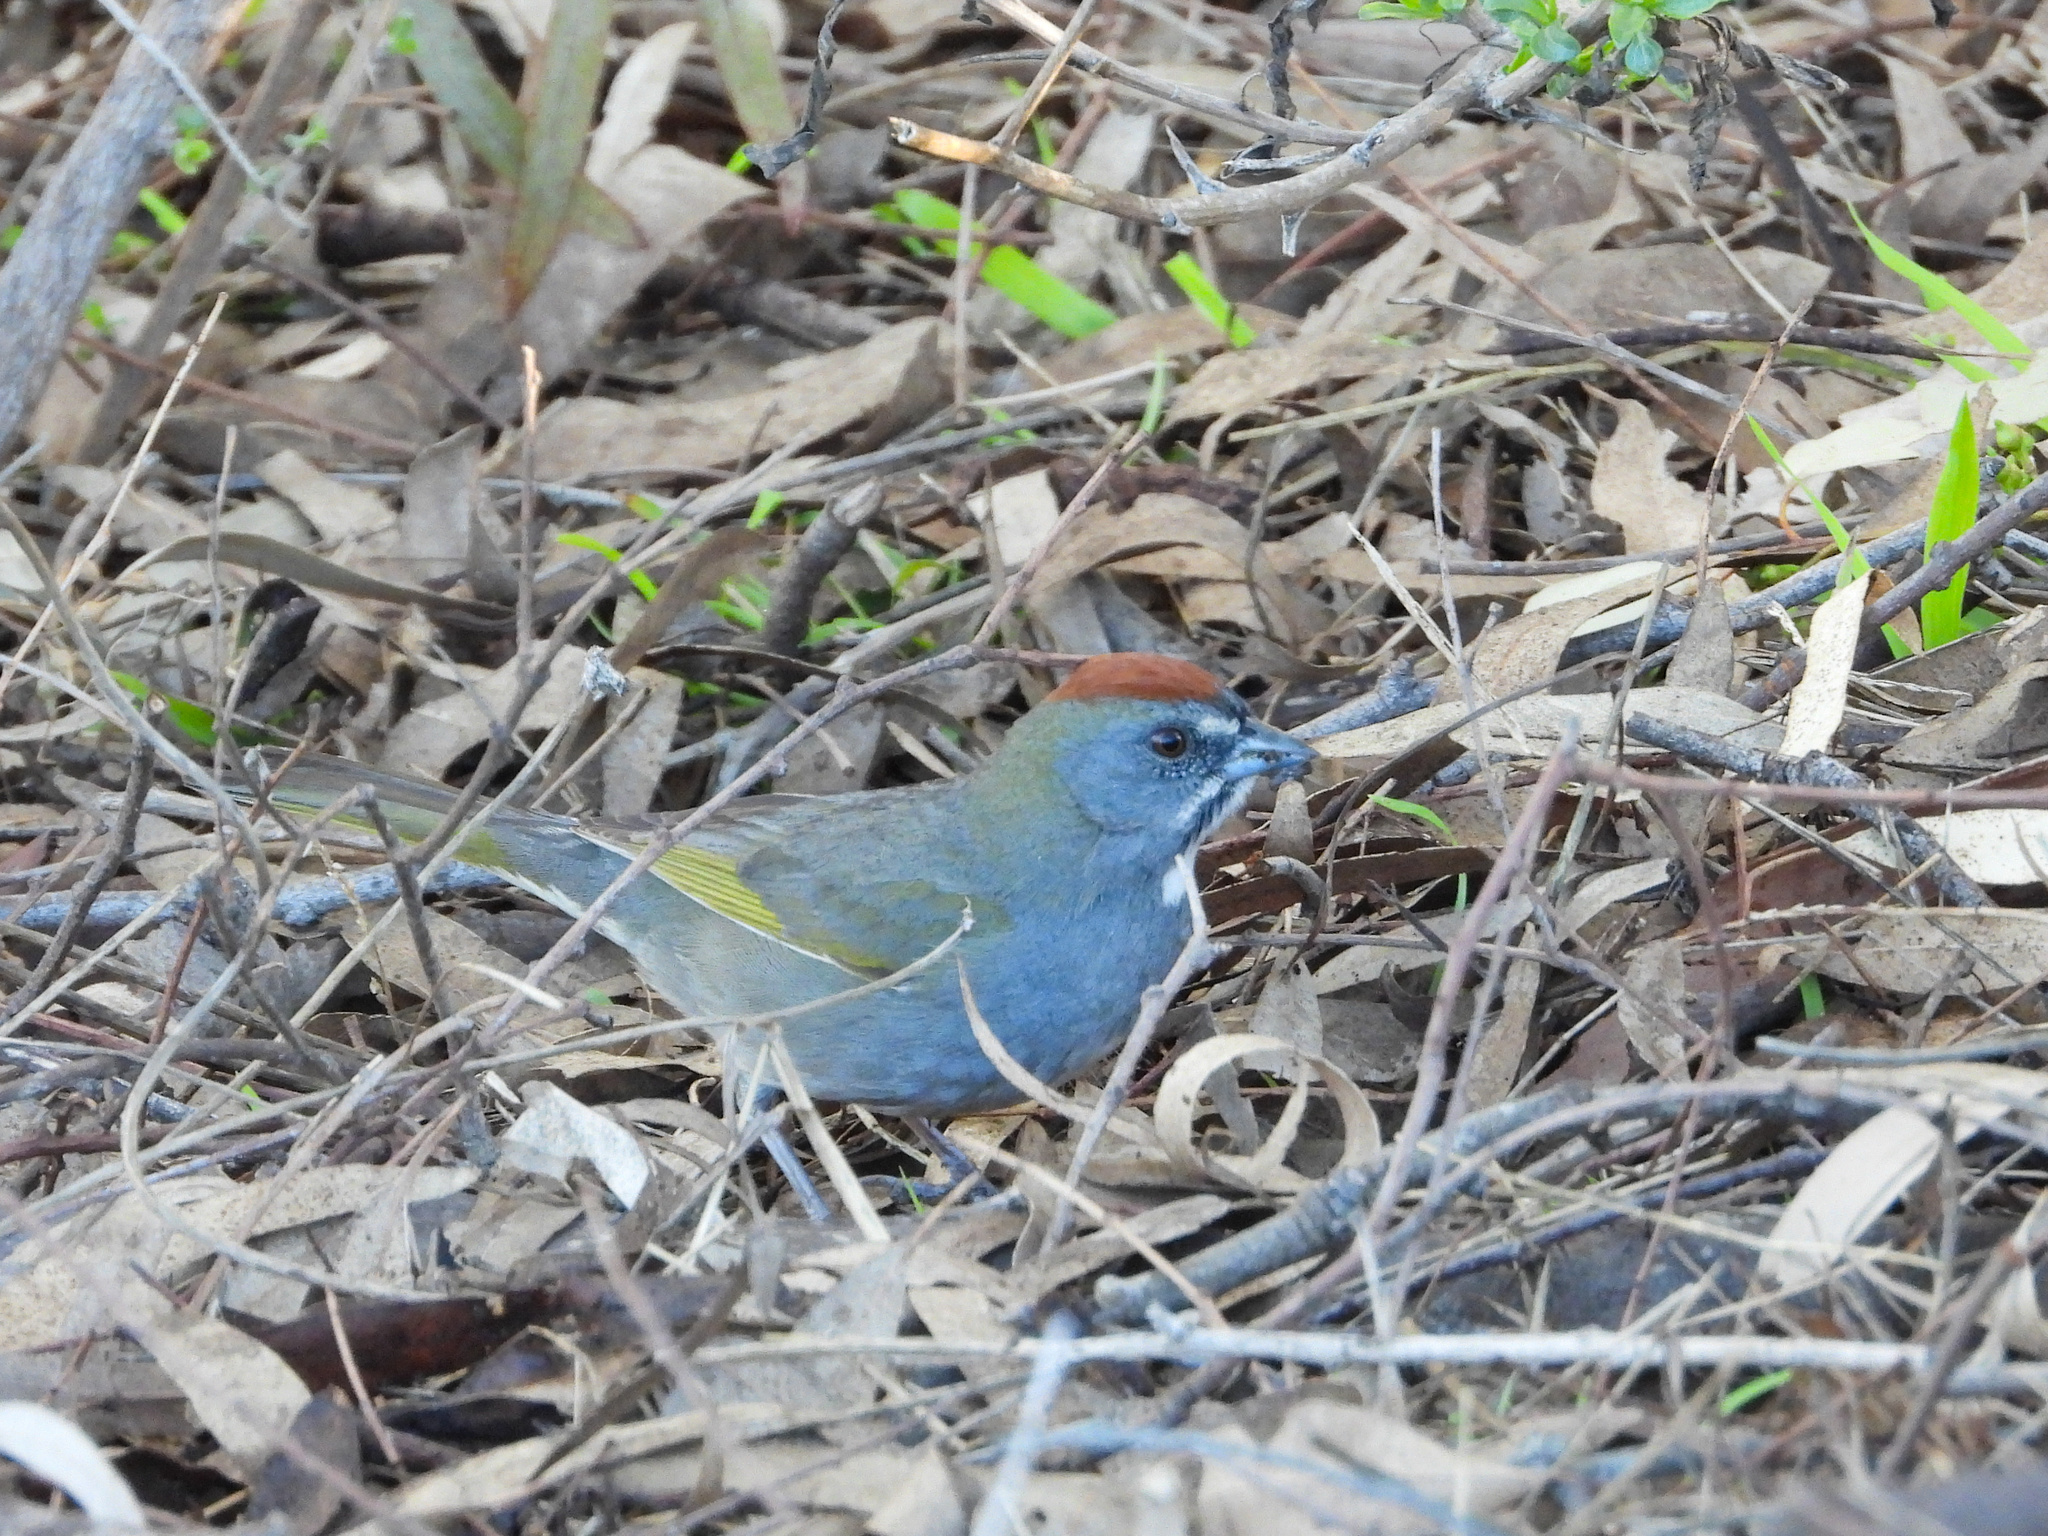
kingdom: Animalia
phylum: Chordata
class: Aves
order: Passeriformes
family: Passerellidae
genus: Pipilo
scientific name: Pipilo chlorurus
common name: Green-tailed towhee
